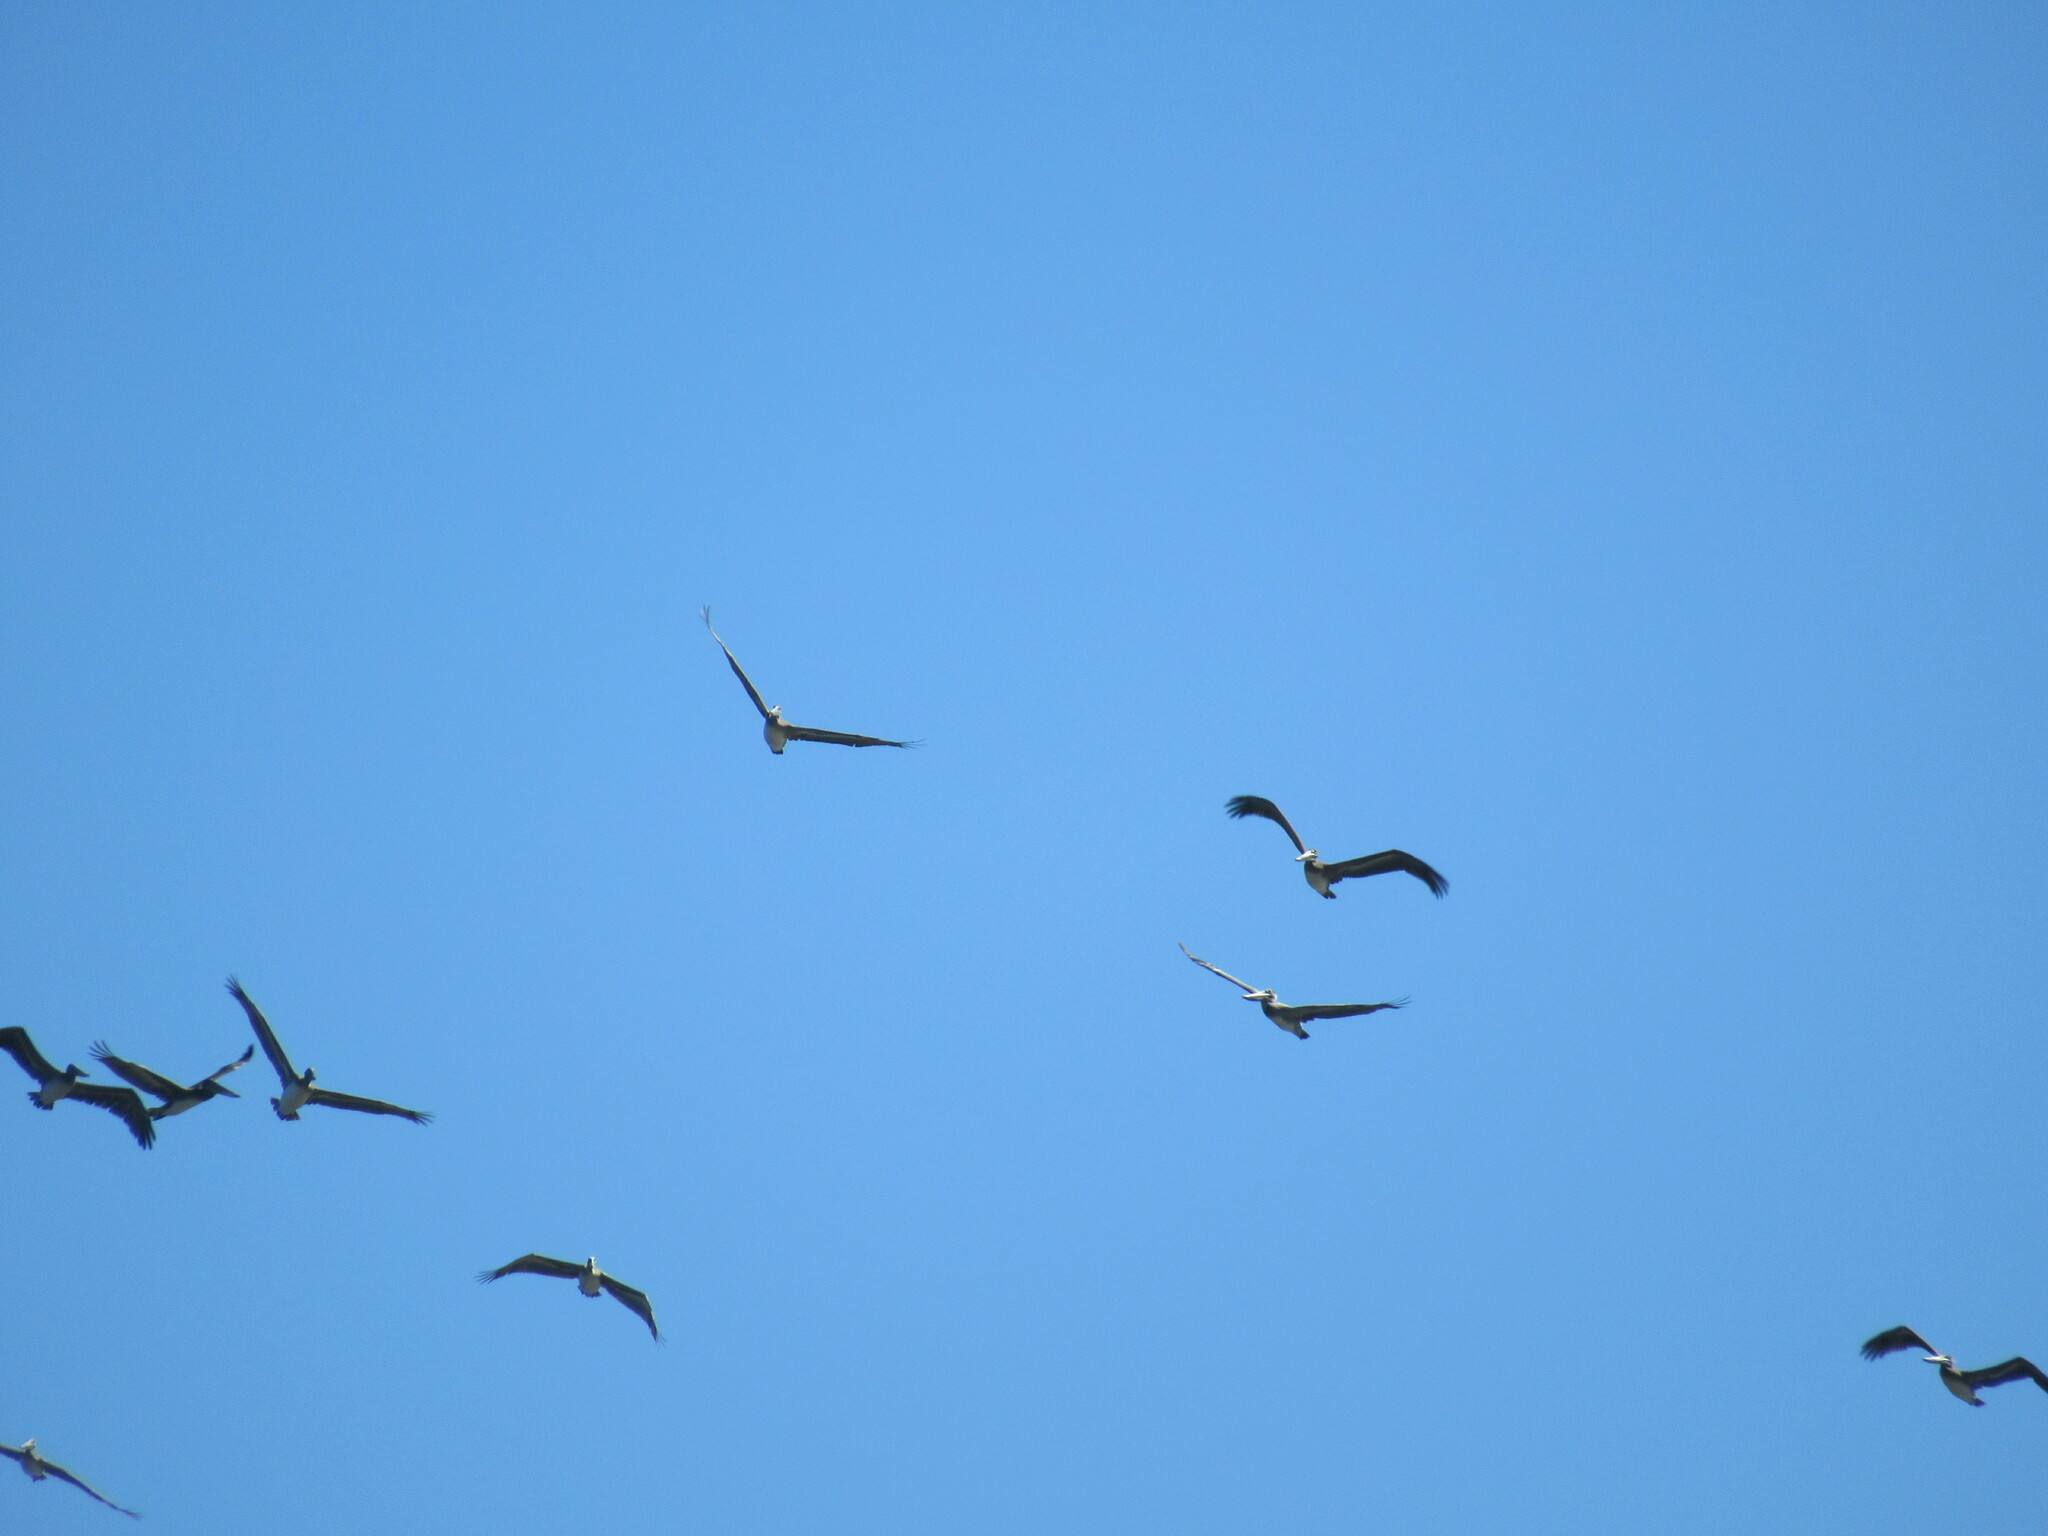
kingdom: Animalia
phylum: Chordata
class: Aves
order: Pelecaniformes
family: Pelecanidae
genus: Pelecanus
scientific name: Pelecanus occidentalis
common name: Brown pelican
